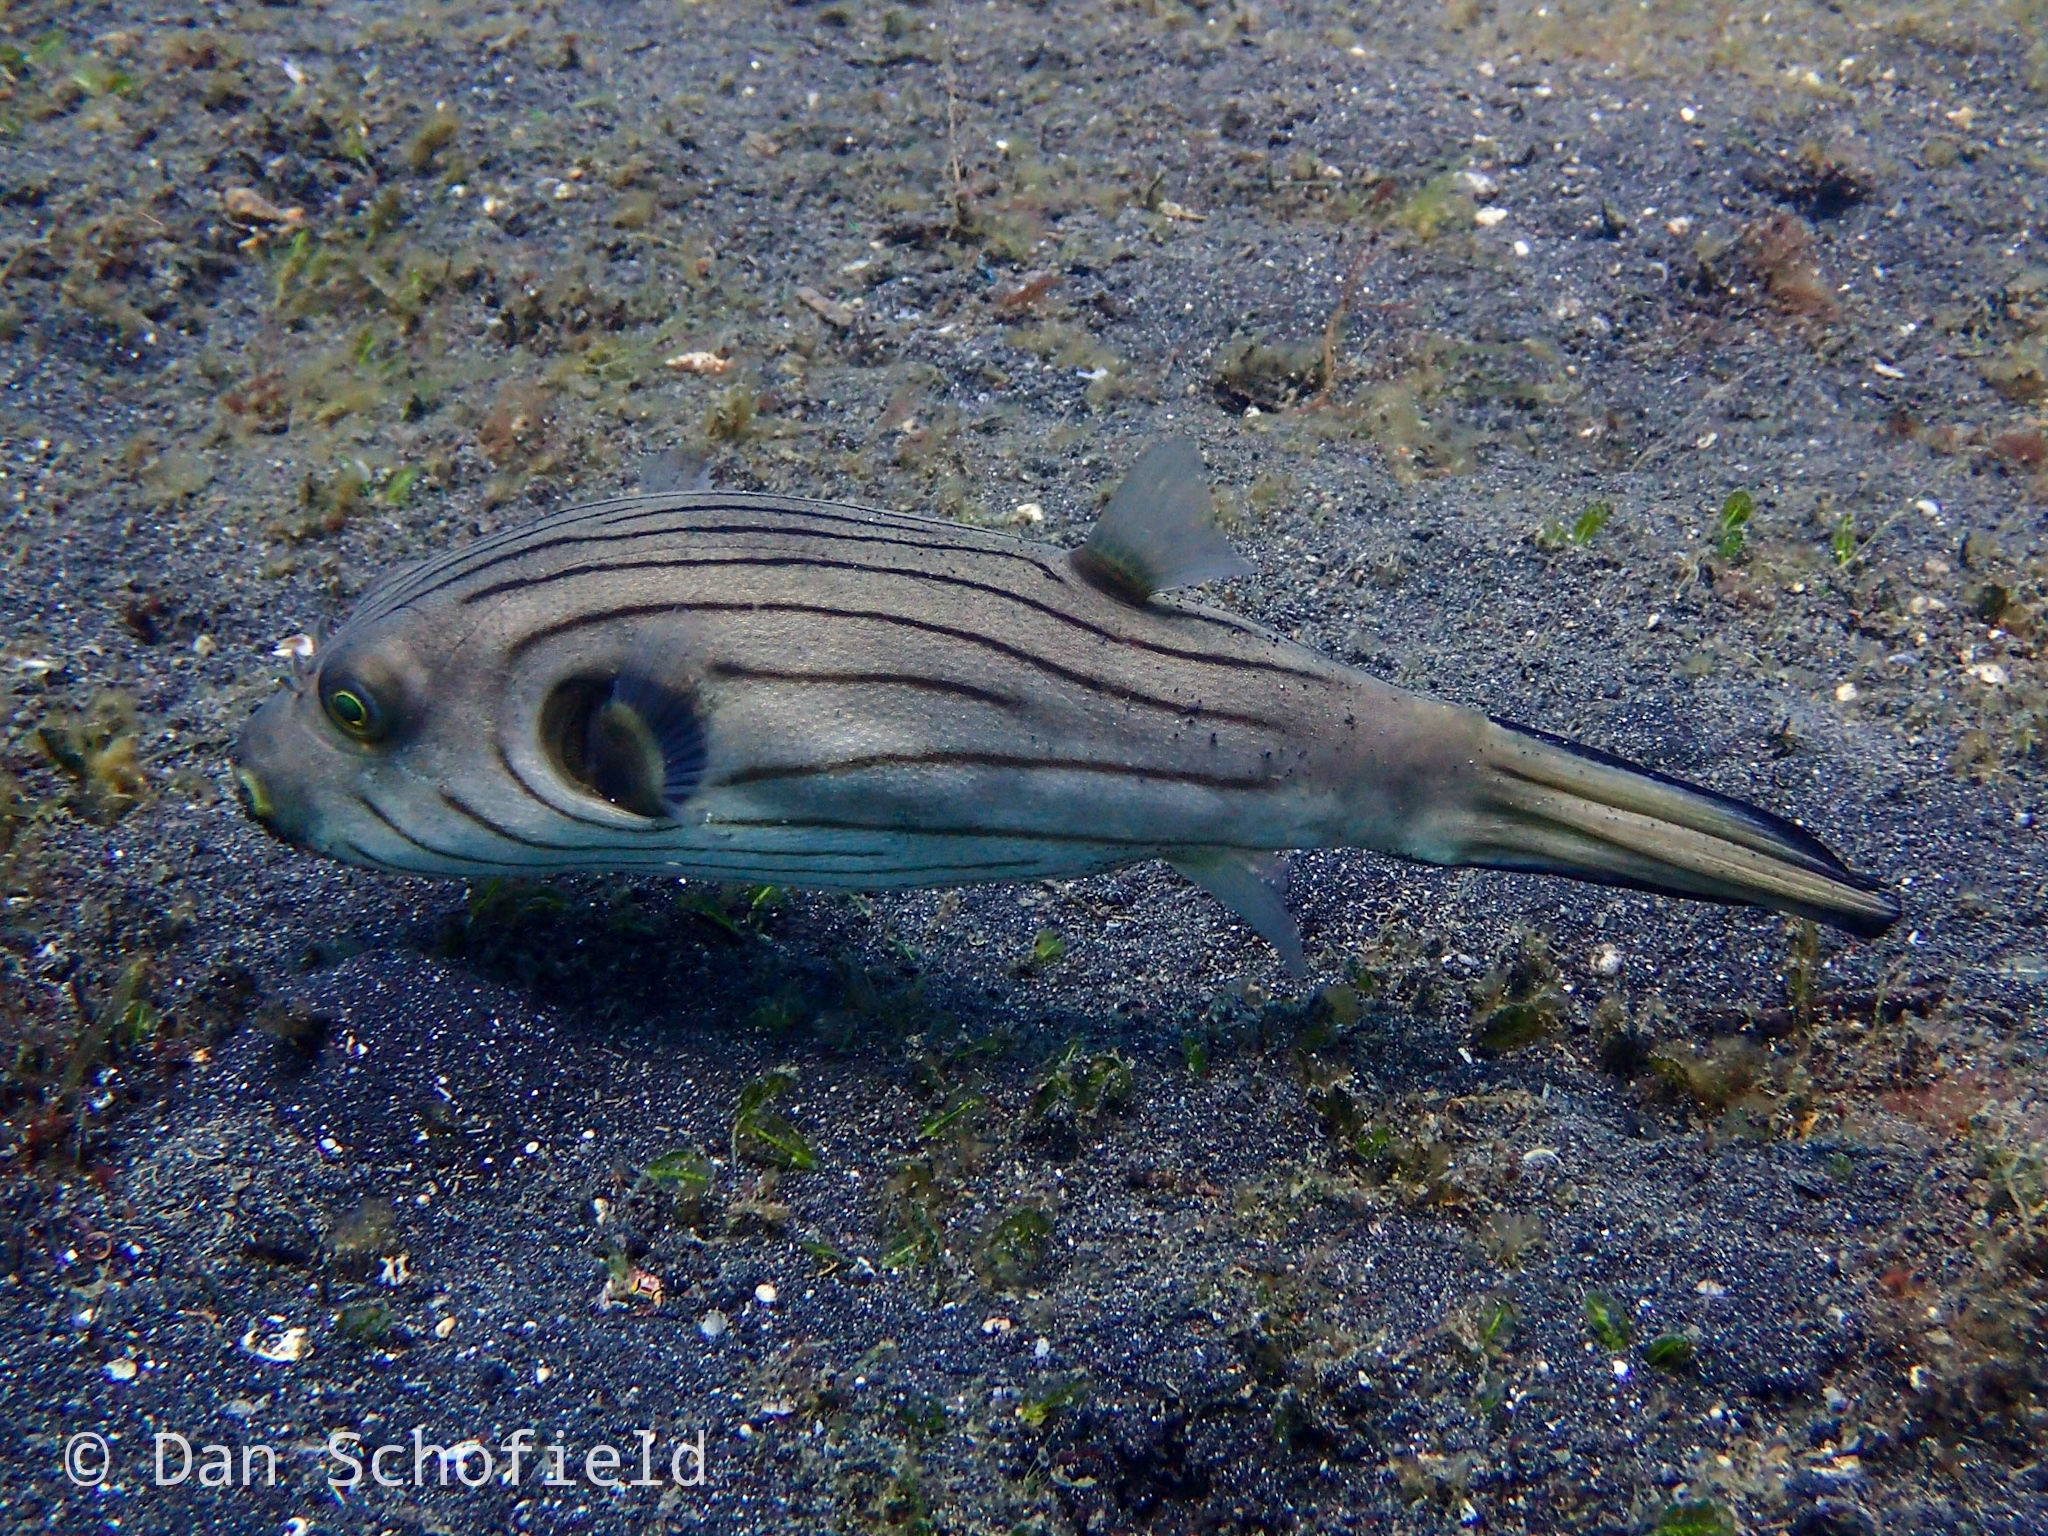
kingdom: Animalia
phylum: Chordata
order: Tetraodontiformes
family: Tetraodontidae
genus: Arothron
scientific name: Arothron manilensis
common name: Narrow-lined puffer
